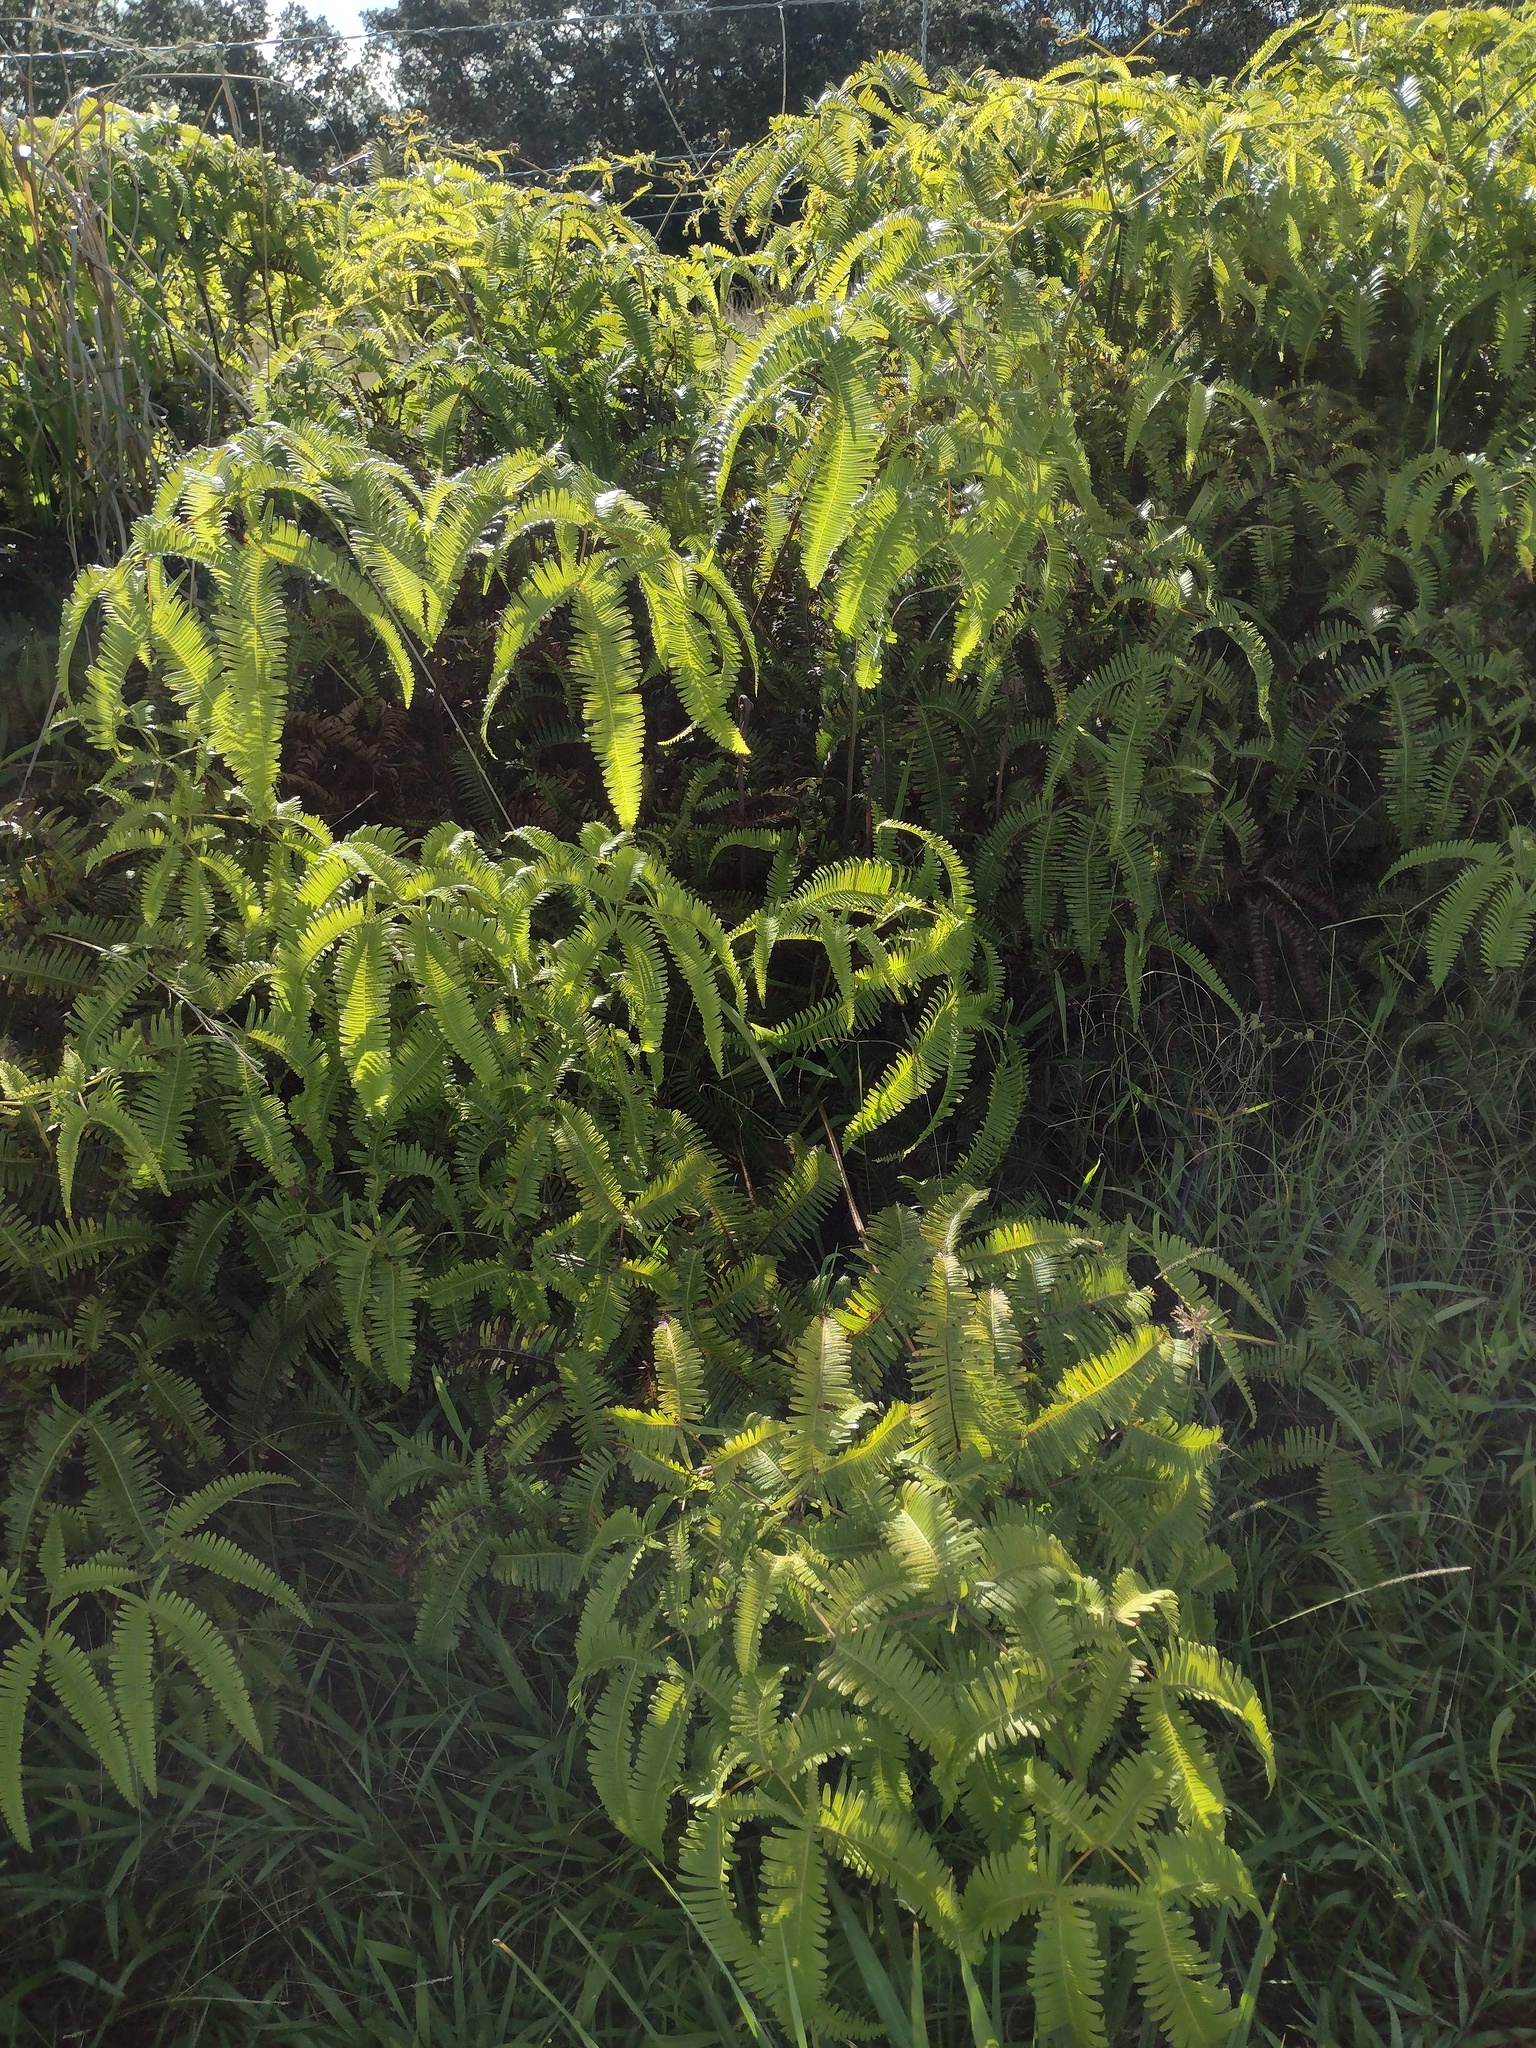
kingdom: Plantae
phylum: Tracheophyta
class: Polypodiopsida
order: Gleicheniales
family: Gleicheniaceae
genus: Dicranopteris
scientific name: Dicranopteris linearis
